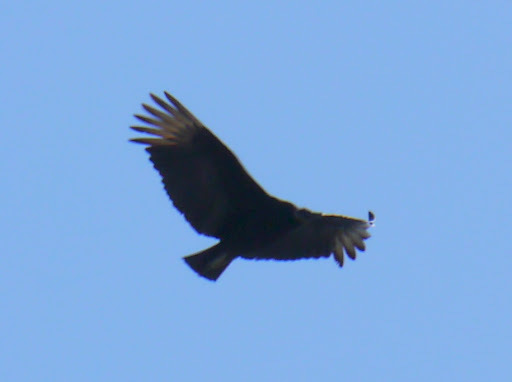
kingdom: Animalia
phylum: Chordata
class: Aves
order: Accipitriformes
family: Cathartidae
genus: Coragyps
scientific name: Coragyps atratus
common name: Black vulture
